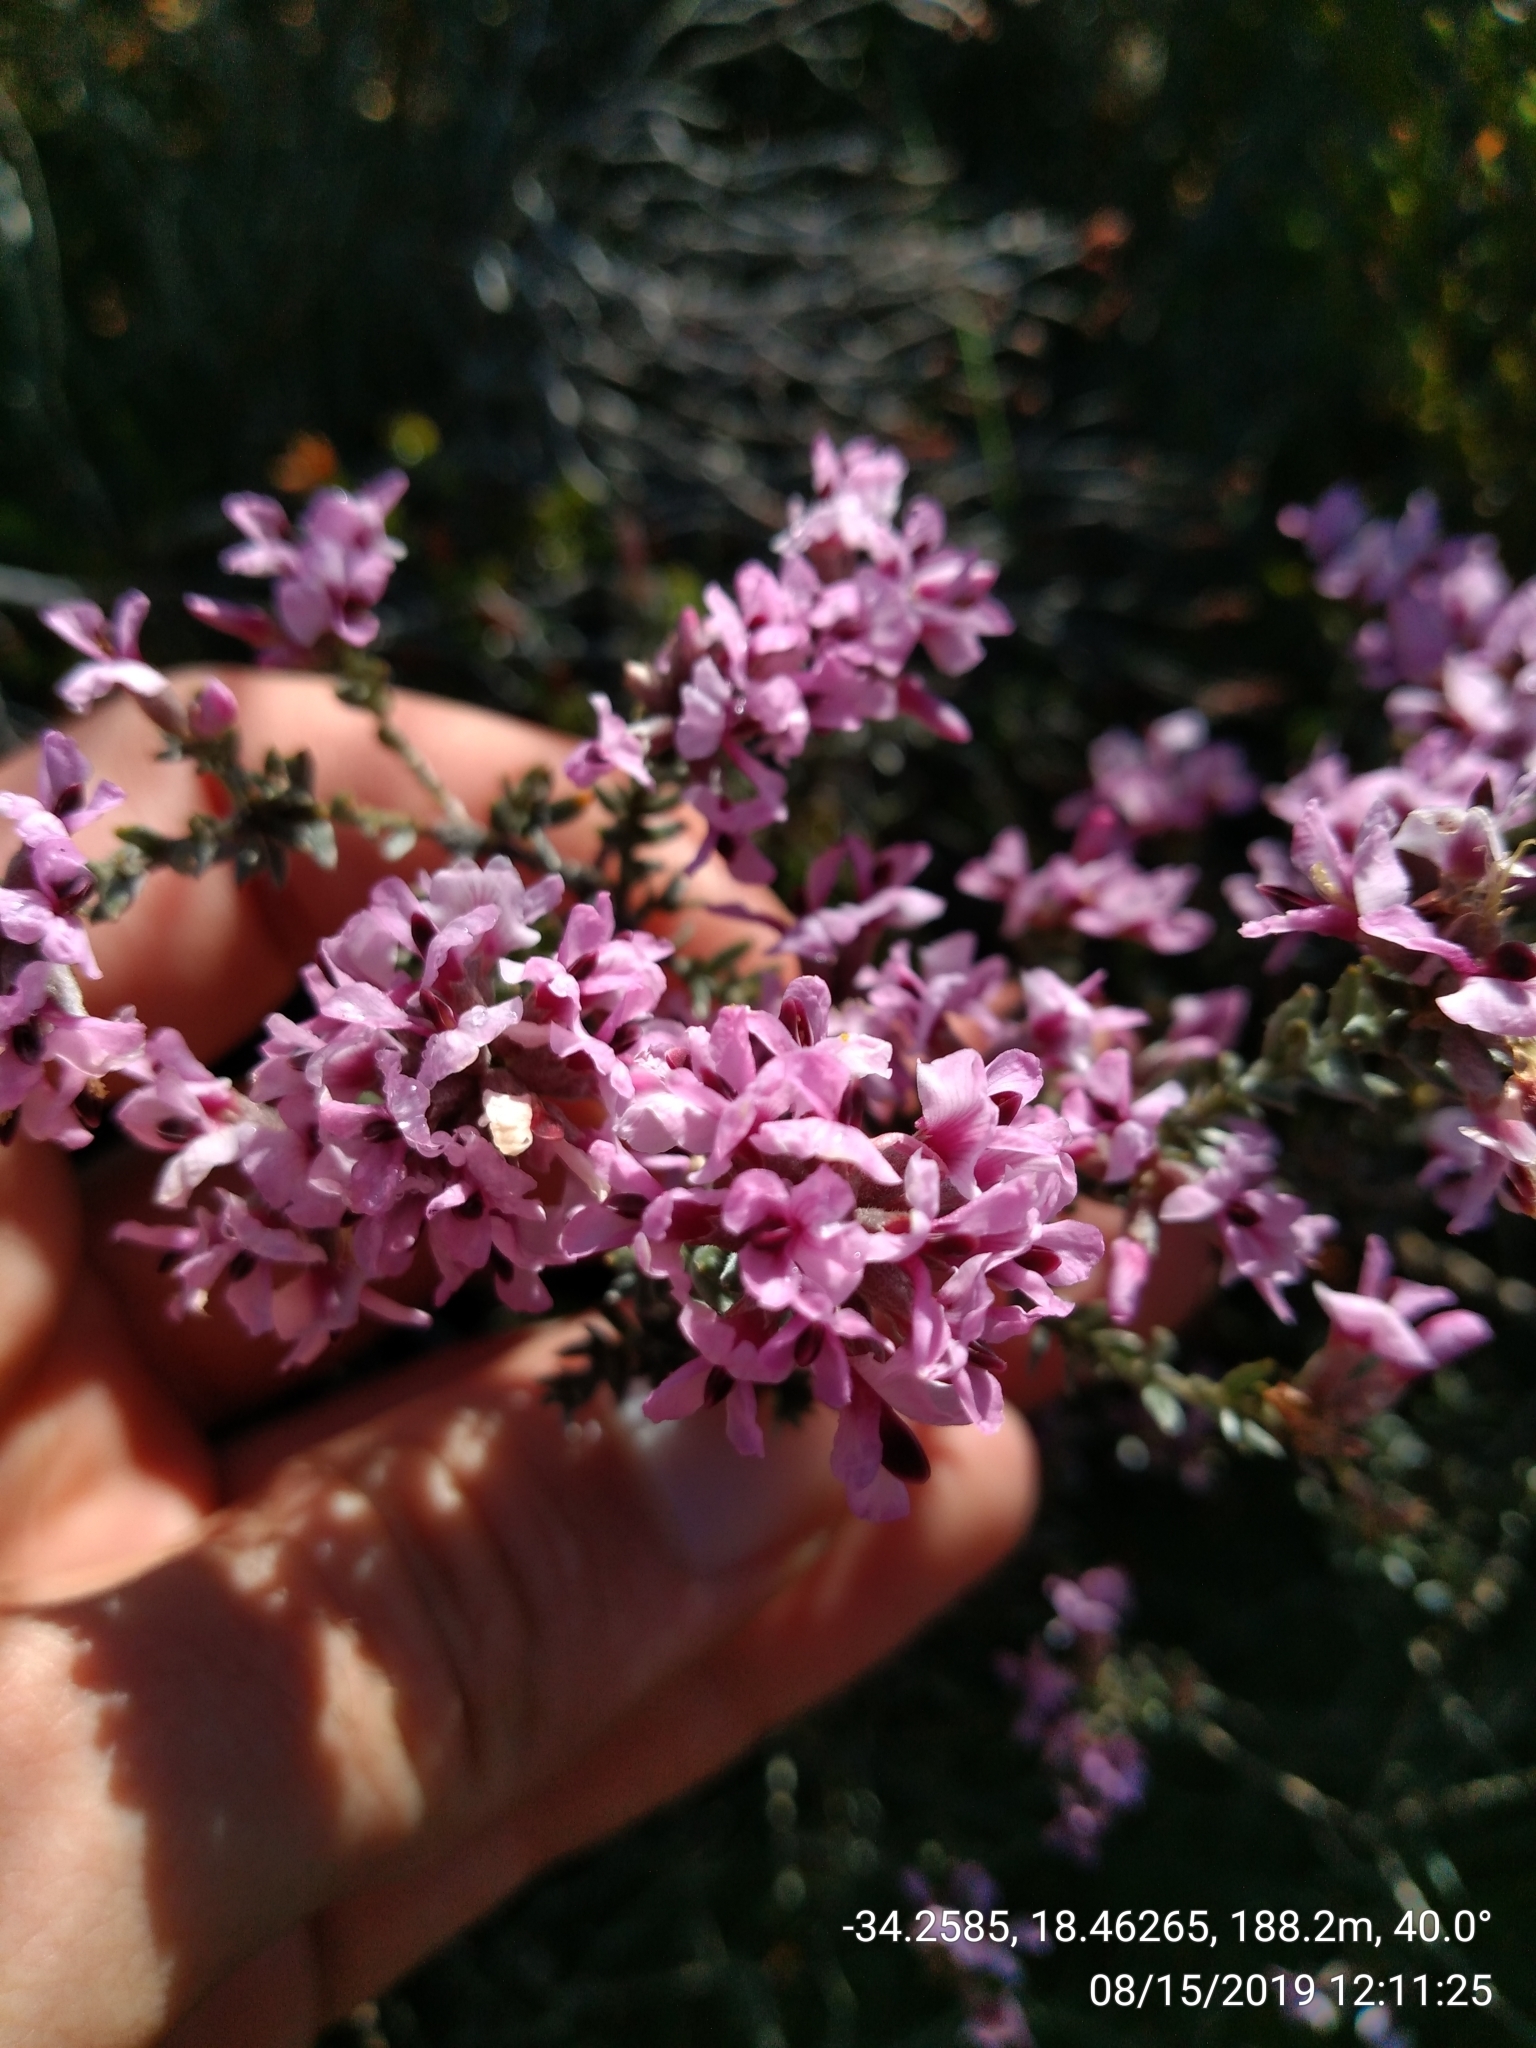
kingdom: Plantae
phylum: Tracheophyta
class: Magnoliopsida
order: Fabales
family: Fabaceae
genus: Amphithalea
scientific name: Amphithalea ericifolia
